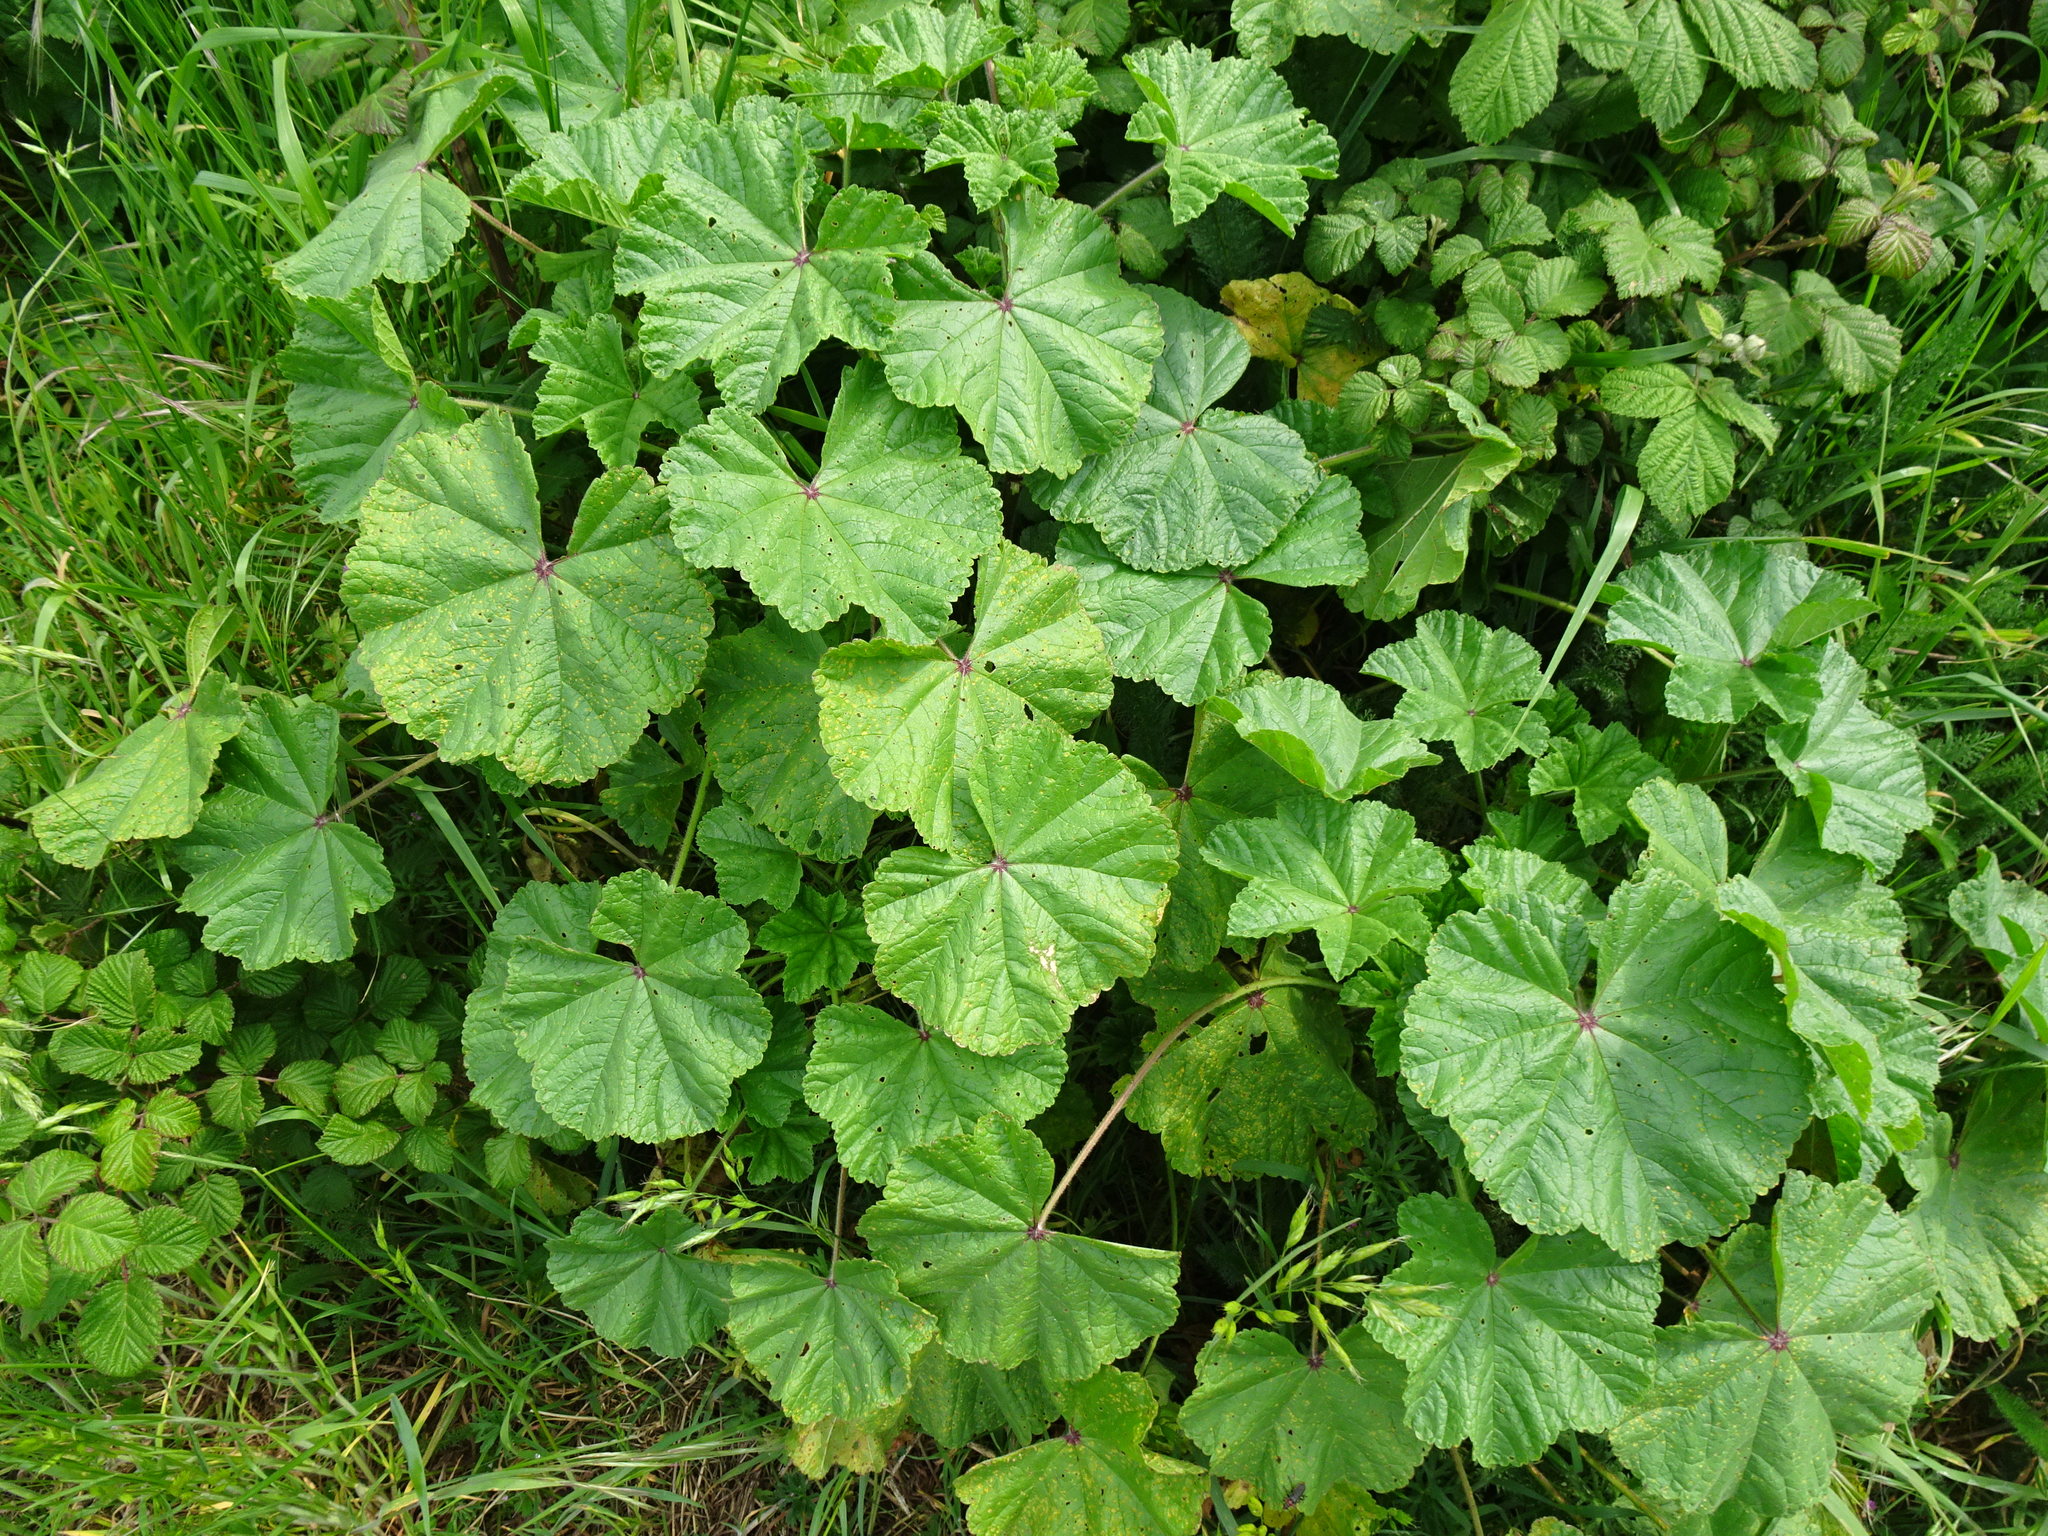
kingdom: Plantae
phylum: Tracheophyta
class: Magnoliopsida
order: Malvales
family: Malvaceae
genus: Malva
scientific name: Malva sylvestris
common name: Common mallow
